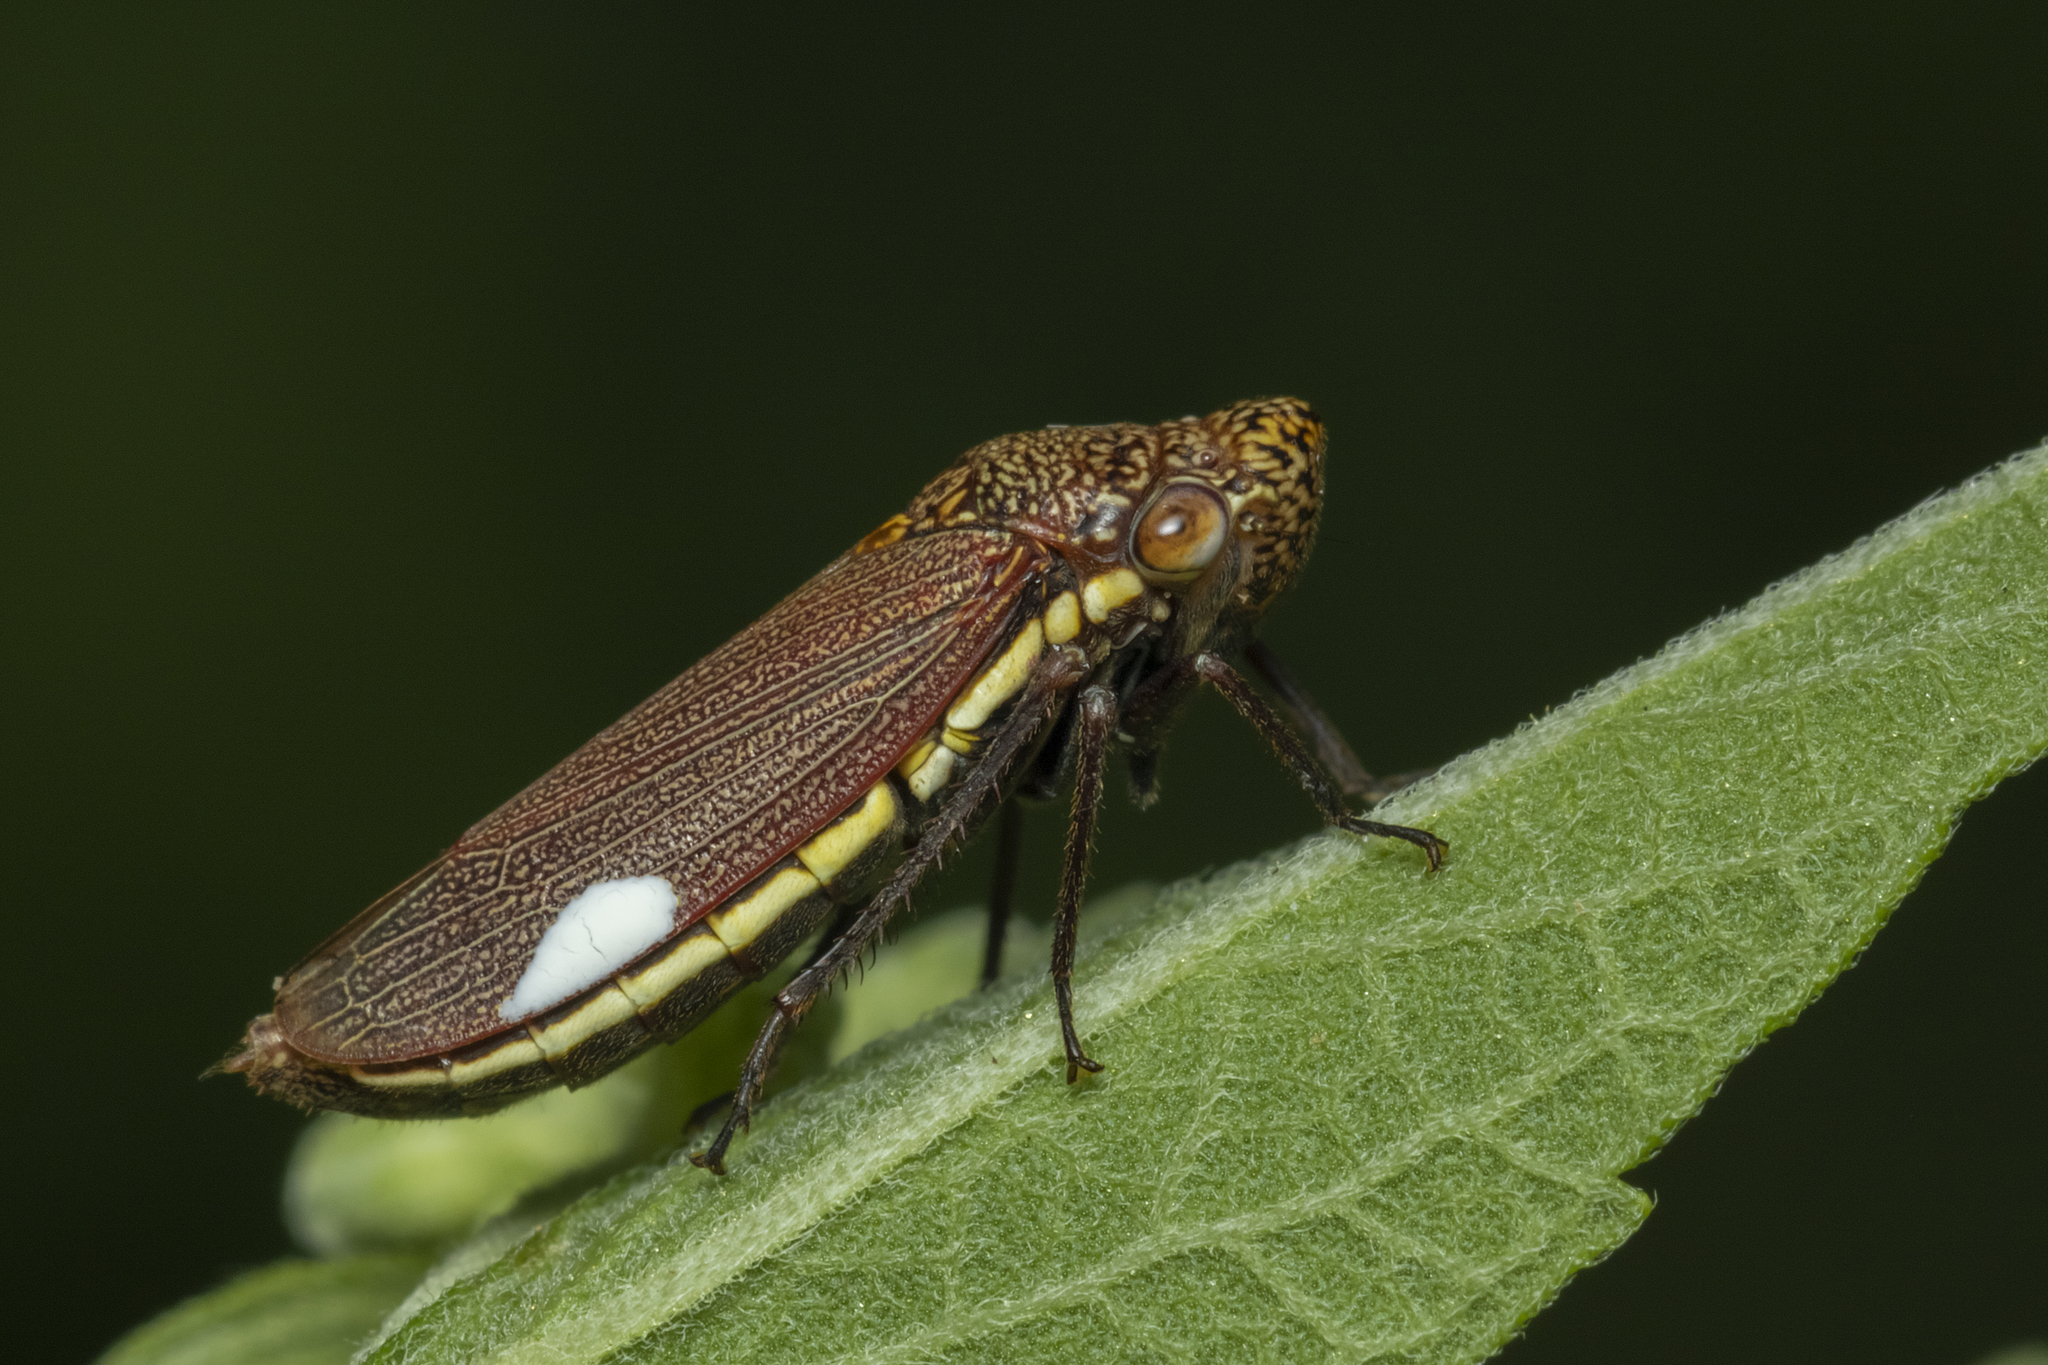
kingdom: Animalia
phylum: Arthropoda
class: Insecta
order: Hemiptera
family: Cicadellidae
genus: Tapajosa
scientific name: Tapajosa rubromarginata
